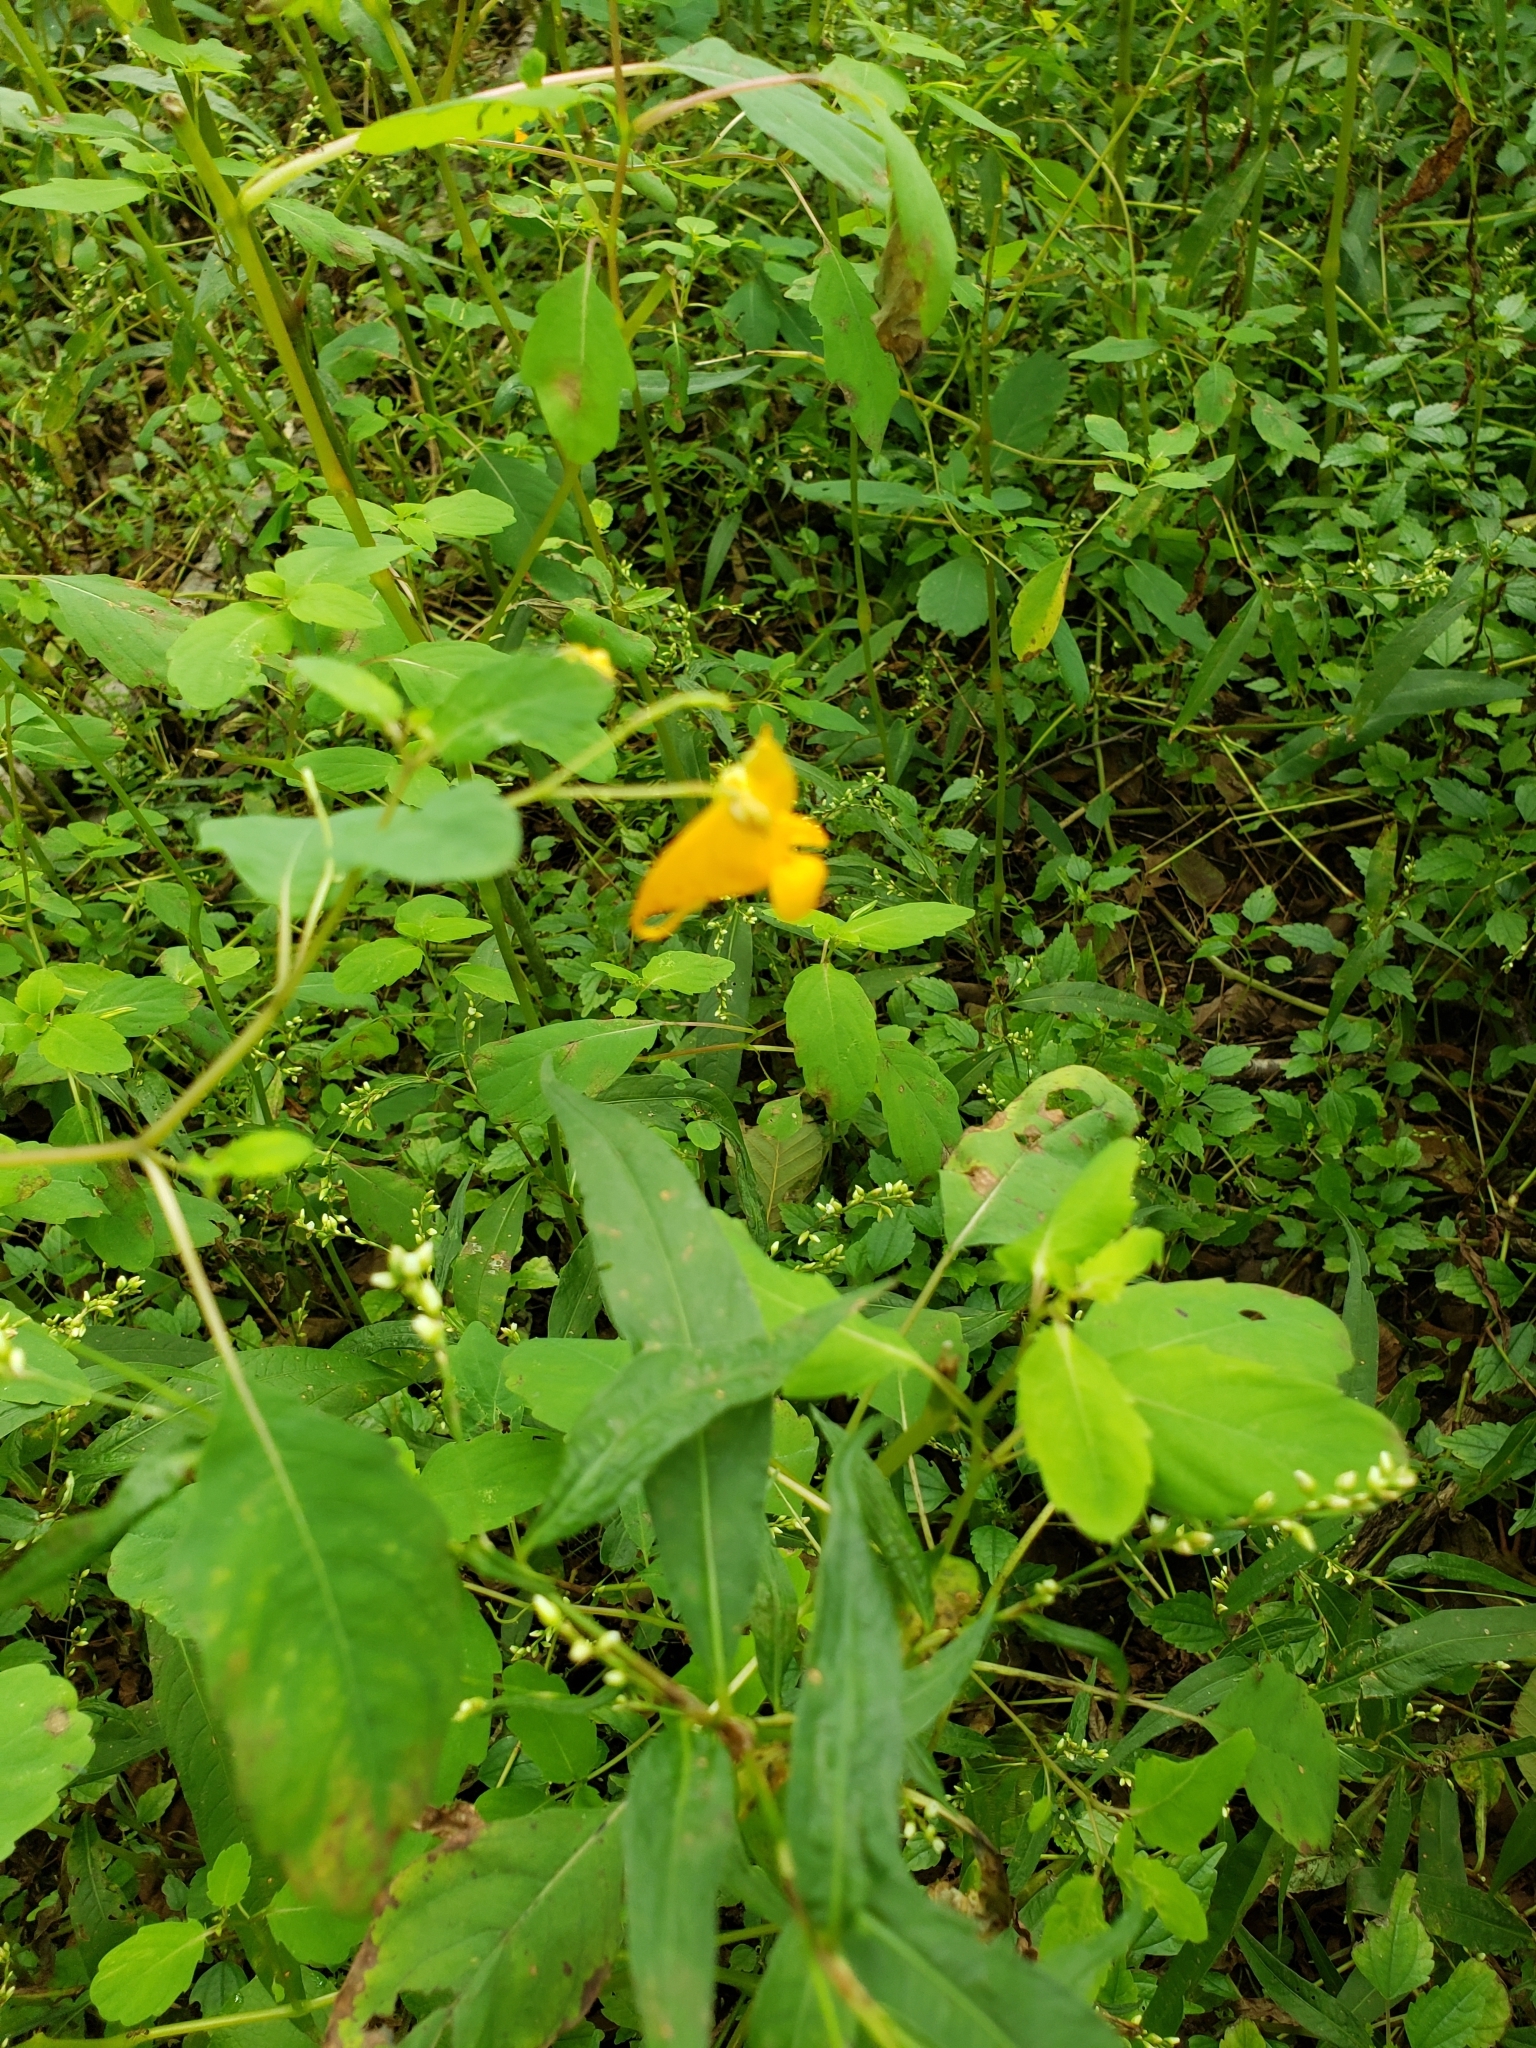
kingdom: Plantae
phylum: Tracheophyta
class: Magnoliopsida
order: Ericales
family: Balsaminaceae
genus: Impatiens
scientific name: Impatiens capensis
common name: Orange balsam
